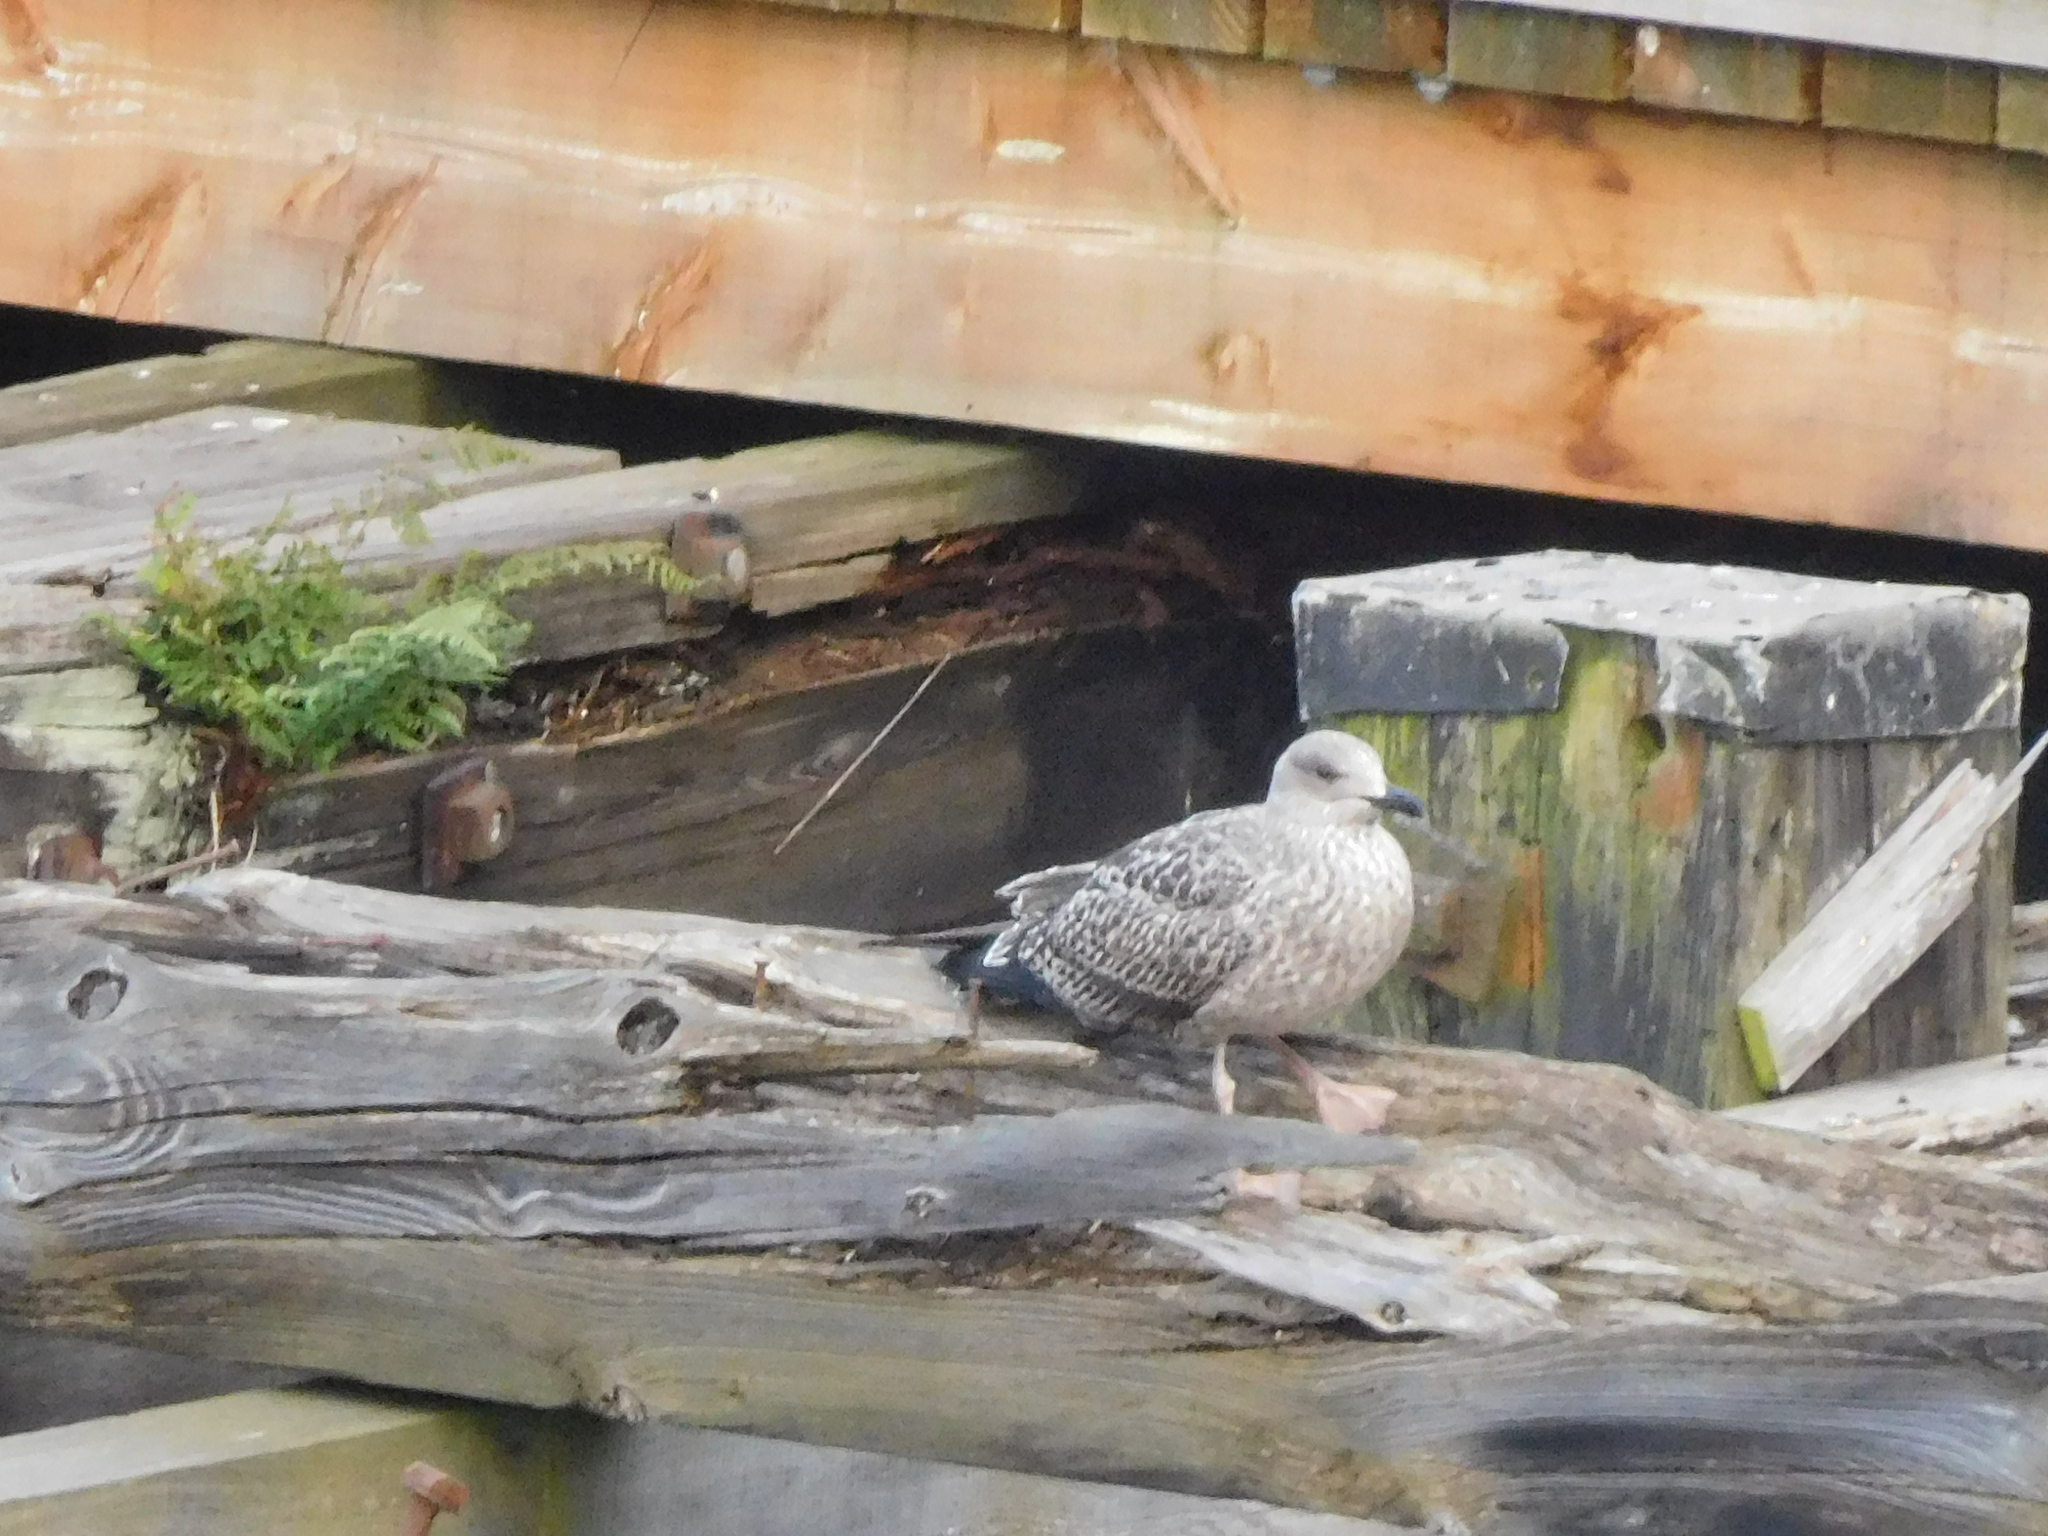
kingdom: Animalia
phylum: Chordata
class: Aves
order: Charadriiformes
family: Laridae
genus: Larus
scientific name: Larus argentatus
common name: Herring gull
